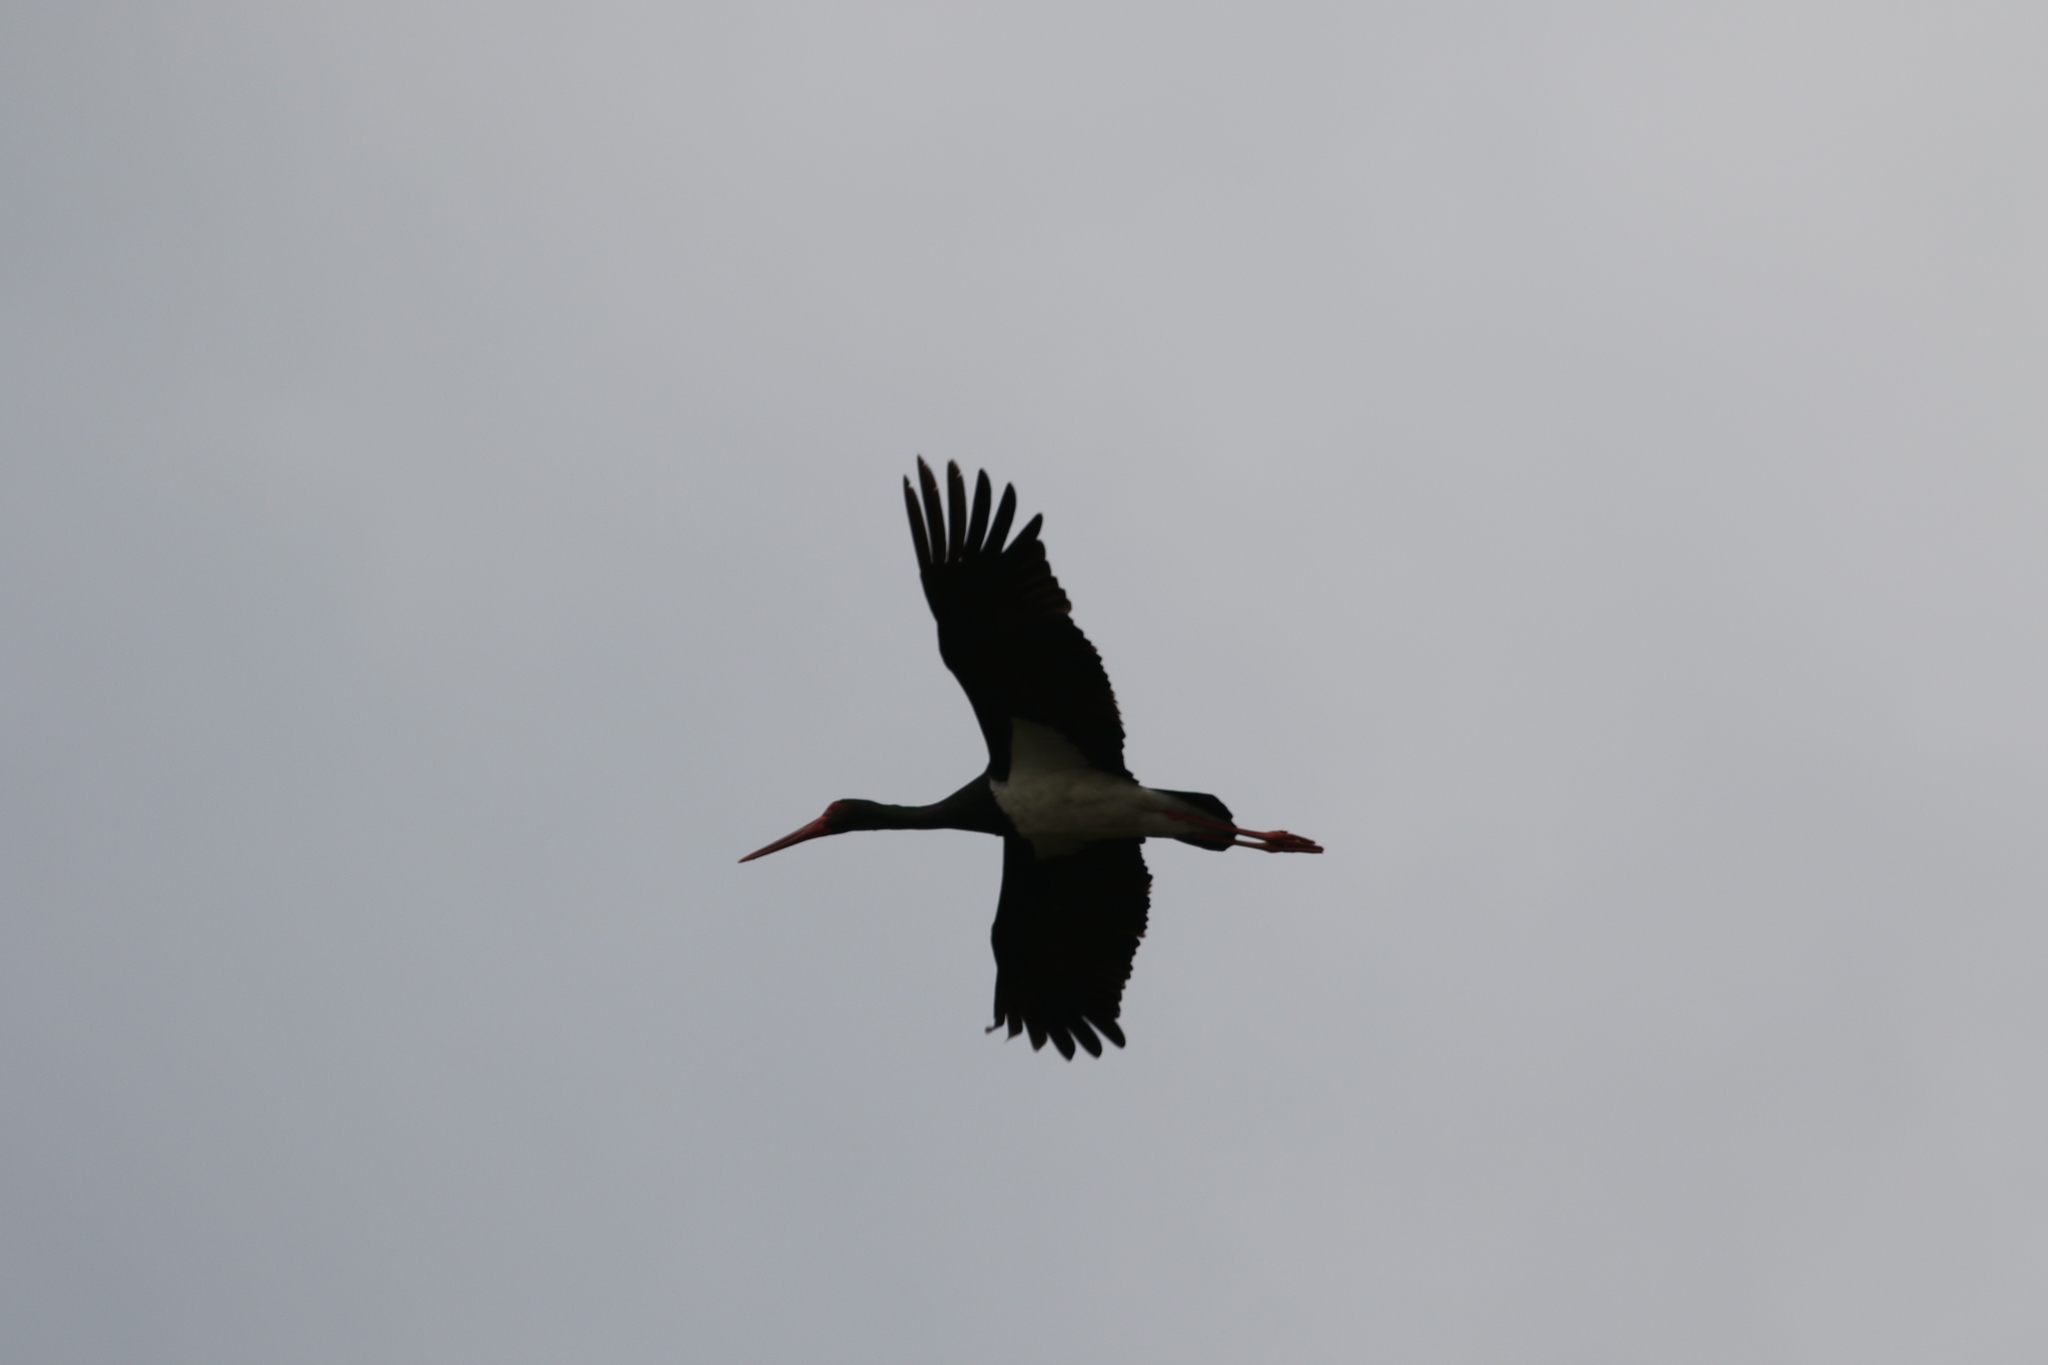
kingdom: Animalia
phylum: Chordata
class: Aves
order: Ciconiiformes
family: Ciconiidae
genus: Ciconia
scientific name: Ciconia nigra
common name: Black stork
